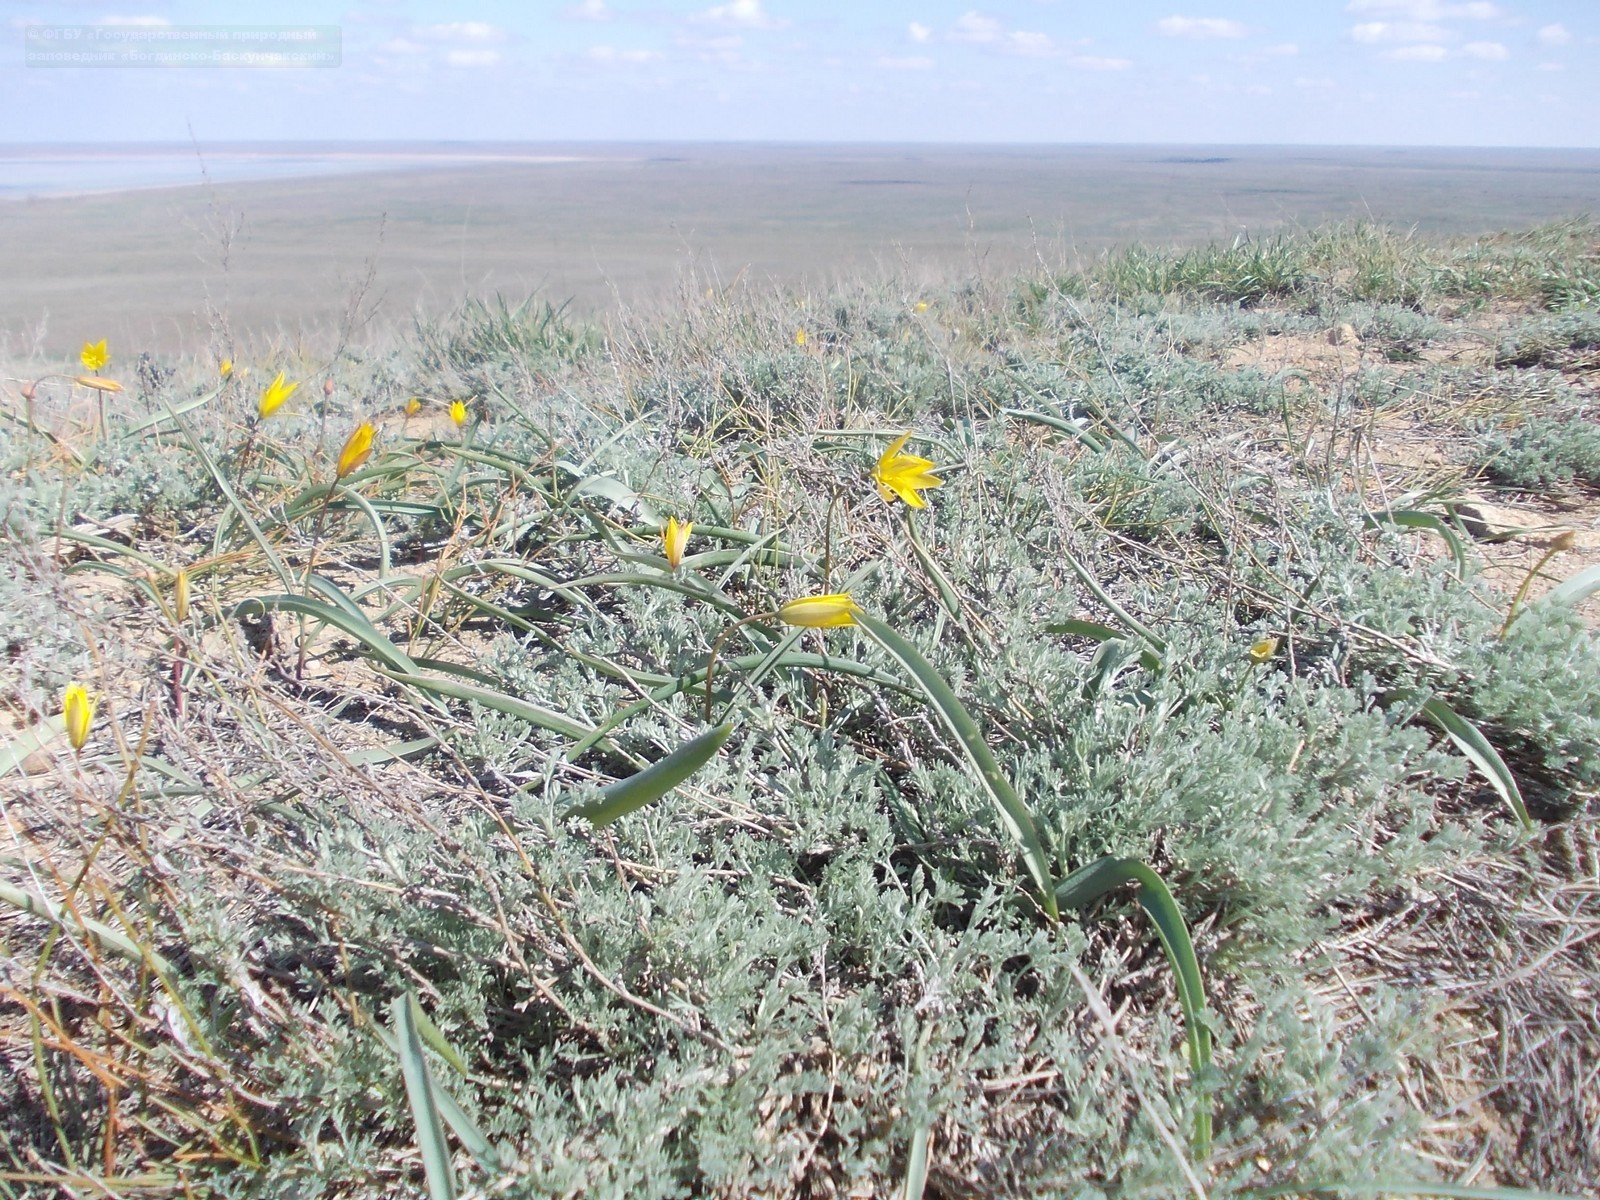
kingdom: Plantae
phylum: Tracheophyta
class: Liliopsida
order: Liliales
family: Liliaceae
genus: Tulipa
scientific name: Tulipa sylvestris
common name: Wild tulip
